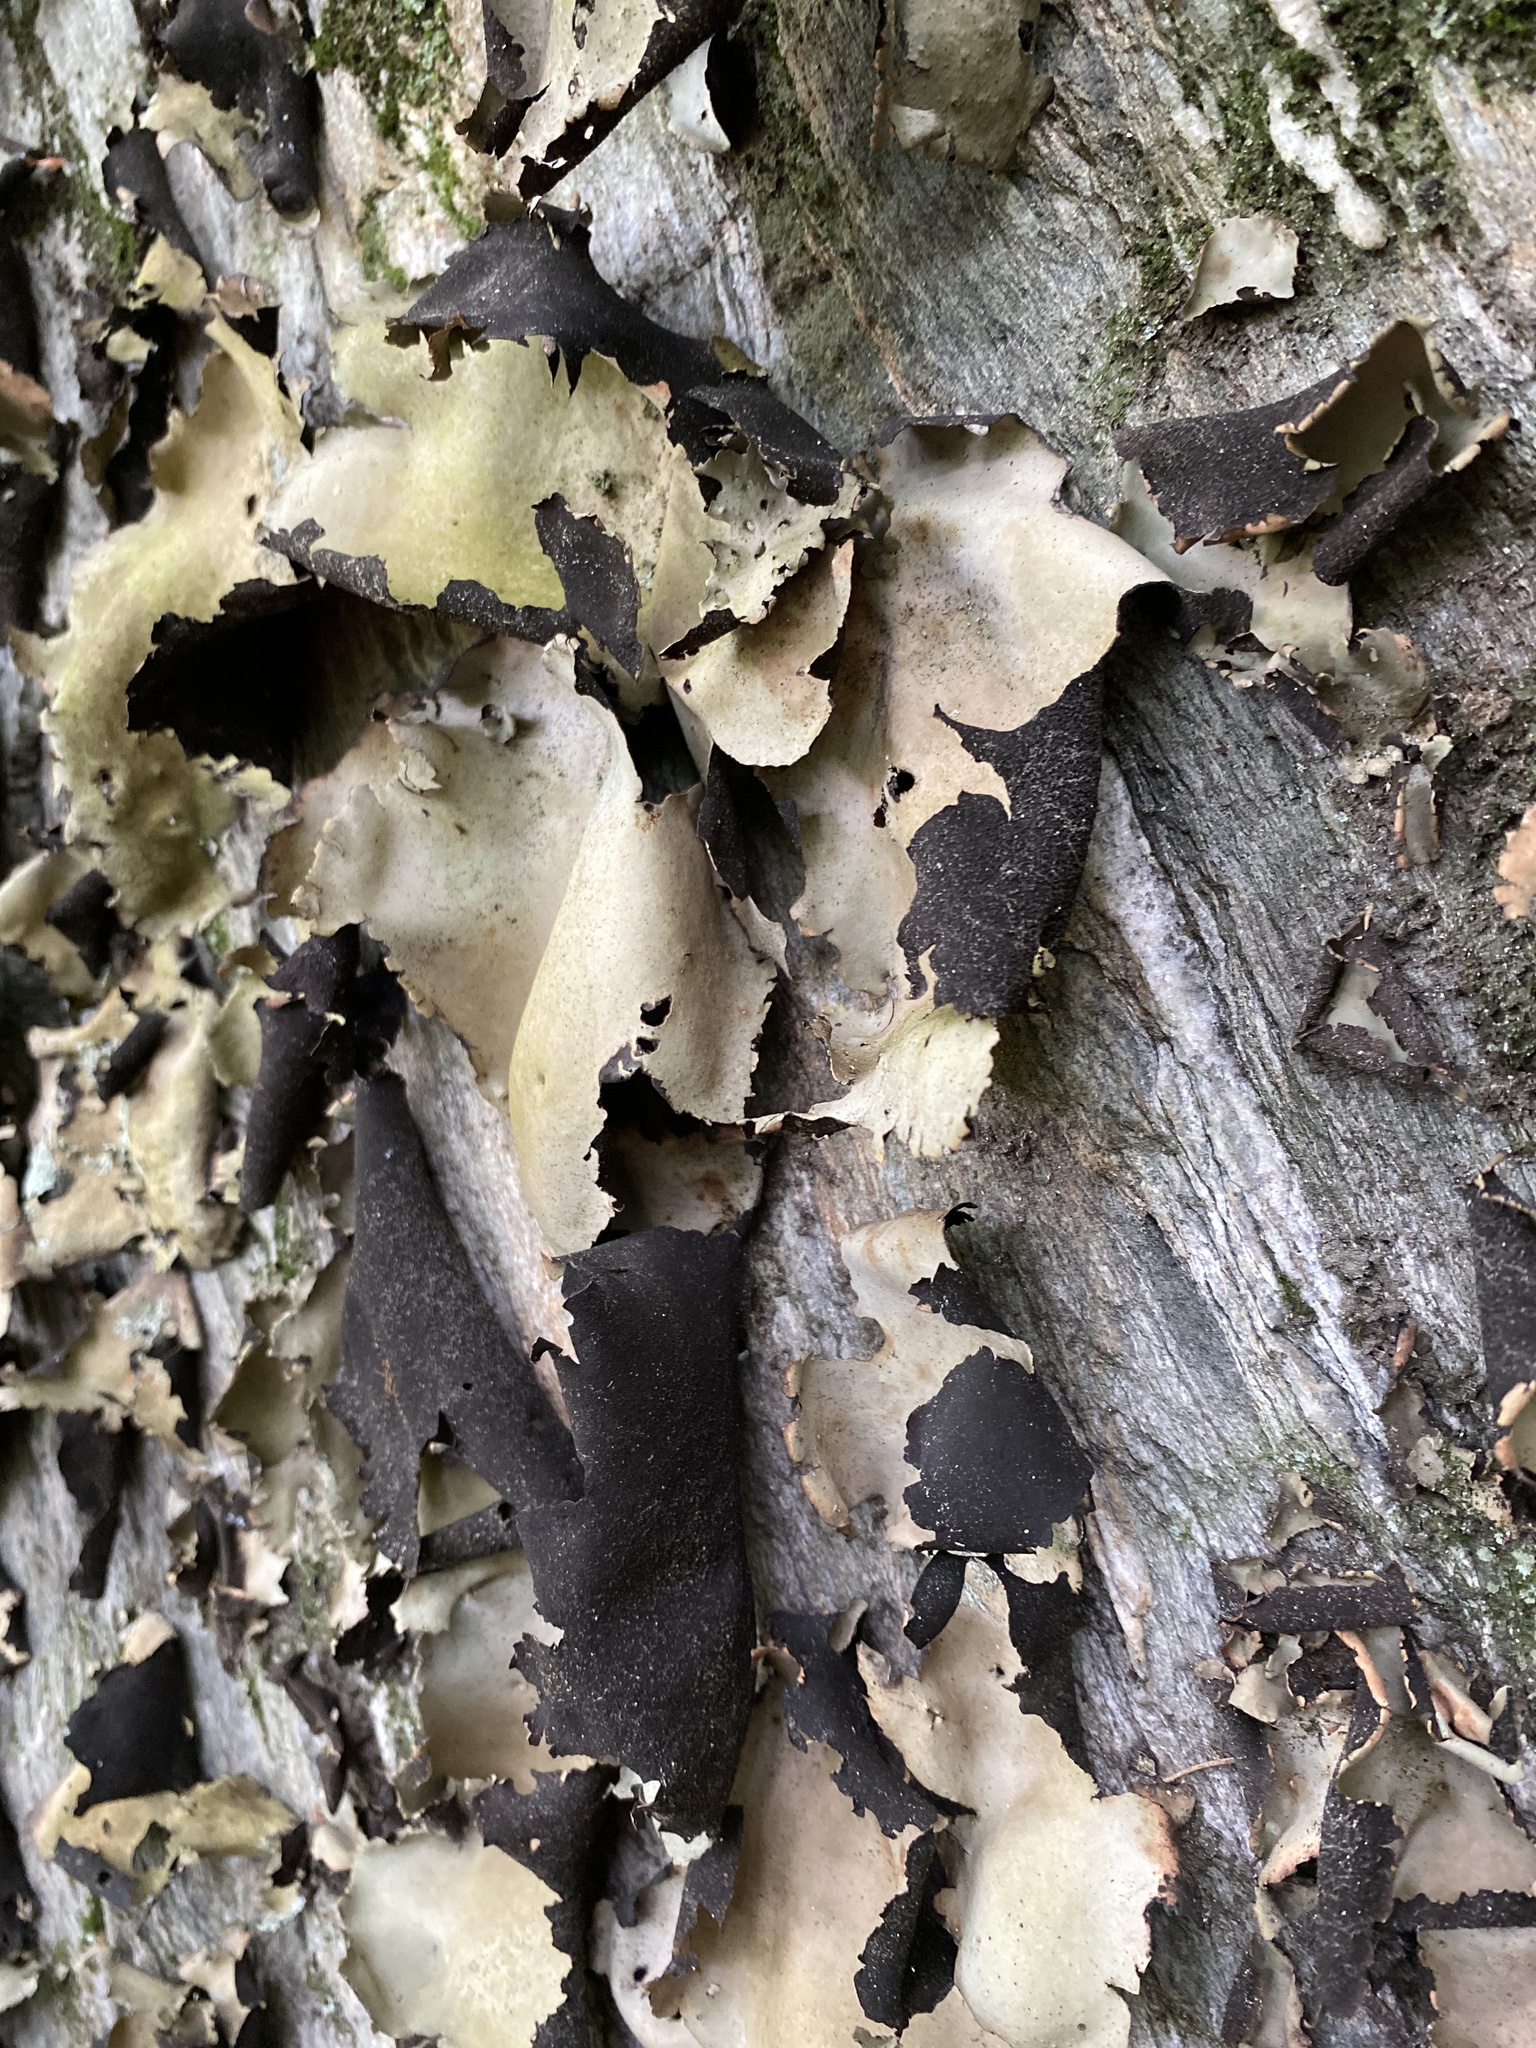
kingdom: Fungi
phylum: Ascomycota
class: Lecanoromycetes
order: Umbilicariales
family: Umbilicariaceae
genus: Umbilicaria
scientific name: Umbilicaria mammulata
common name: Smooth rock tripe
